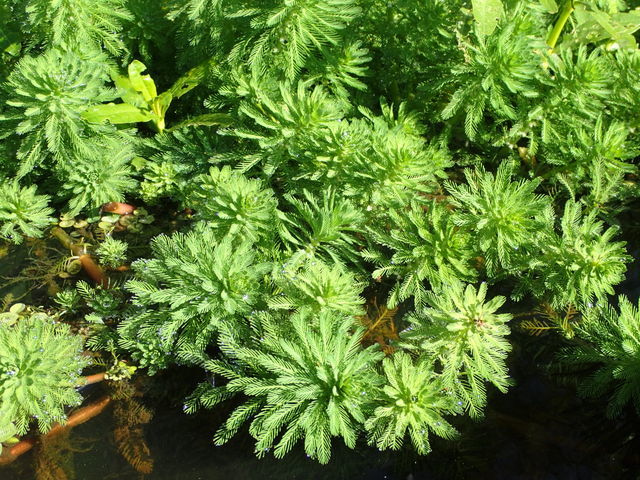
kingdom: Plantae
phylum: Tracheophyta
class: Magnoliopsida
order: Saxifragales
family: Haloragaceae
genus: Myriophyllum
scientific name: Myriophyllum aquaticum
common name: Parrot's feather
